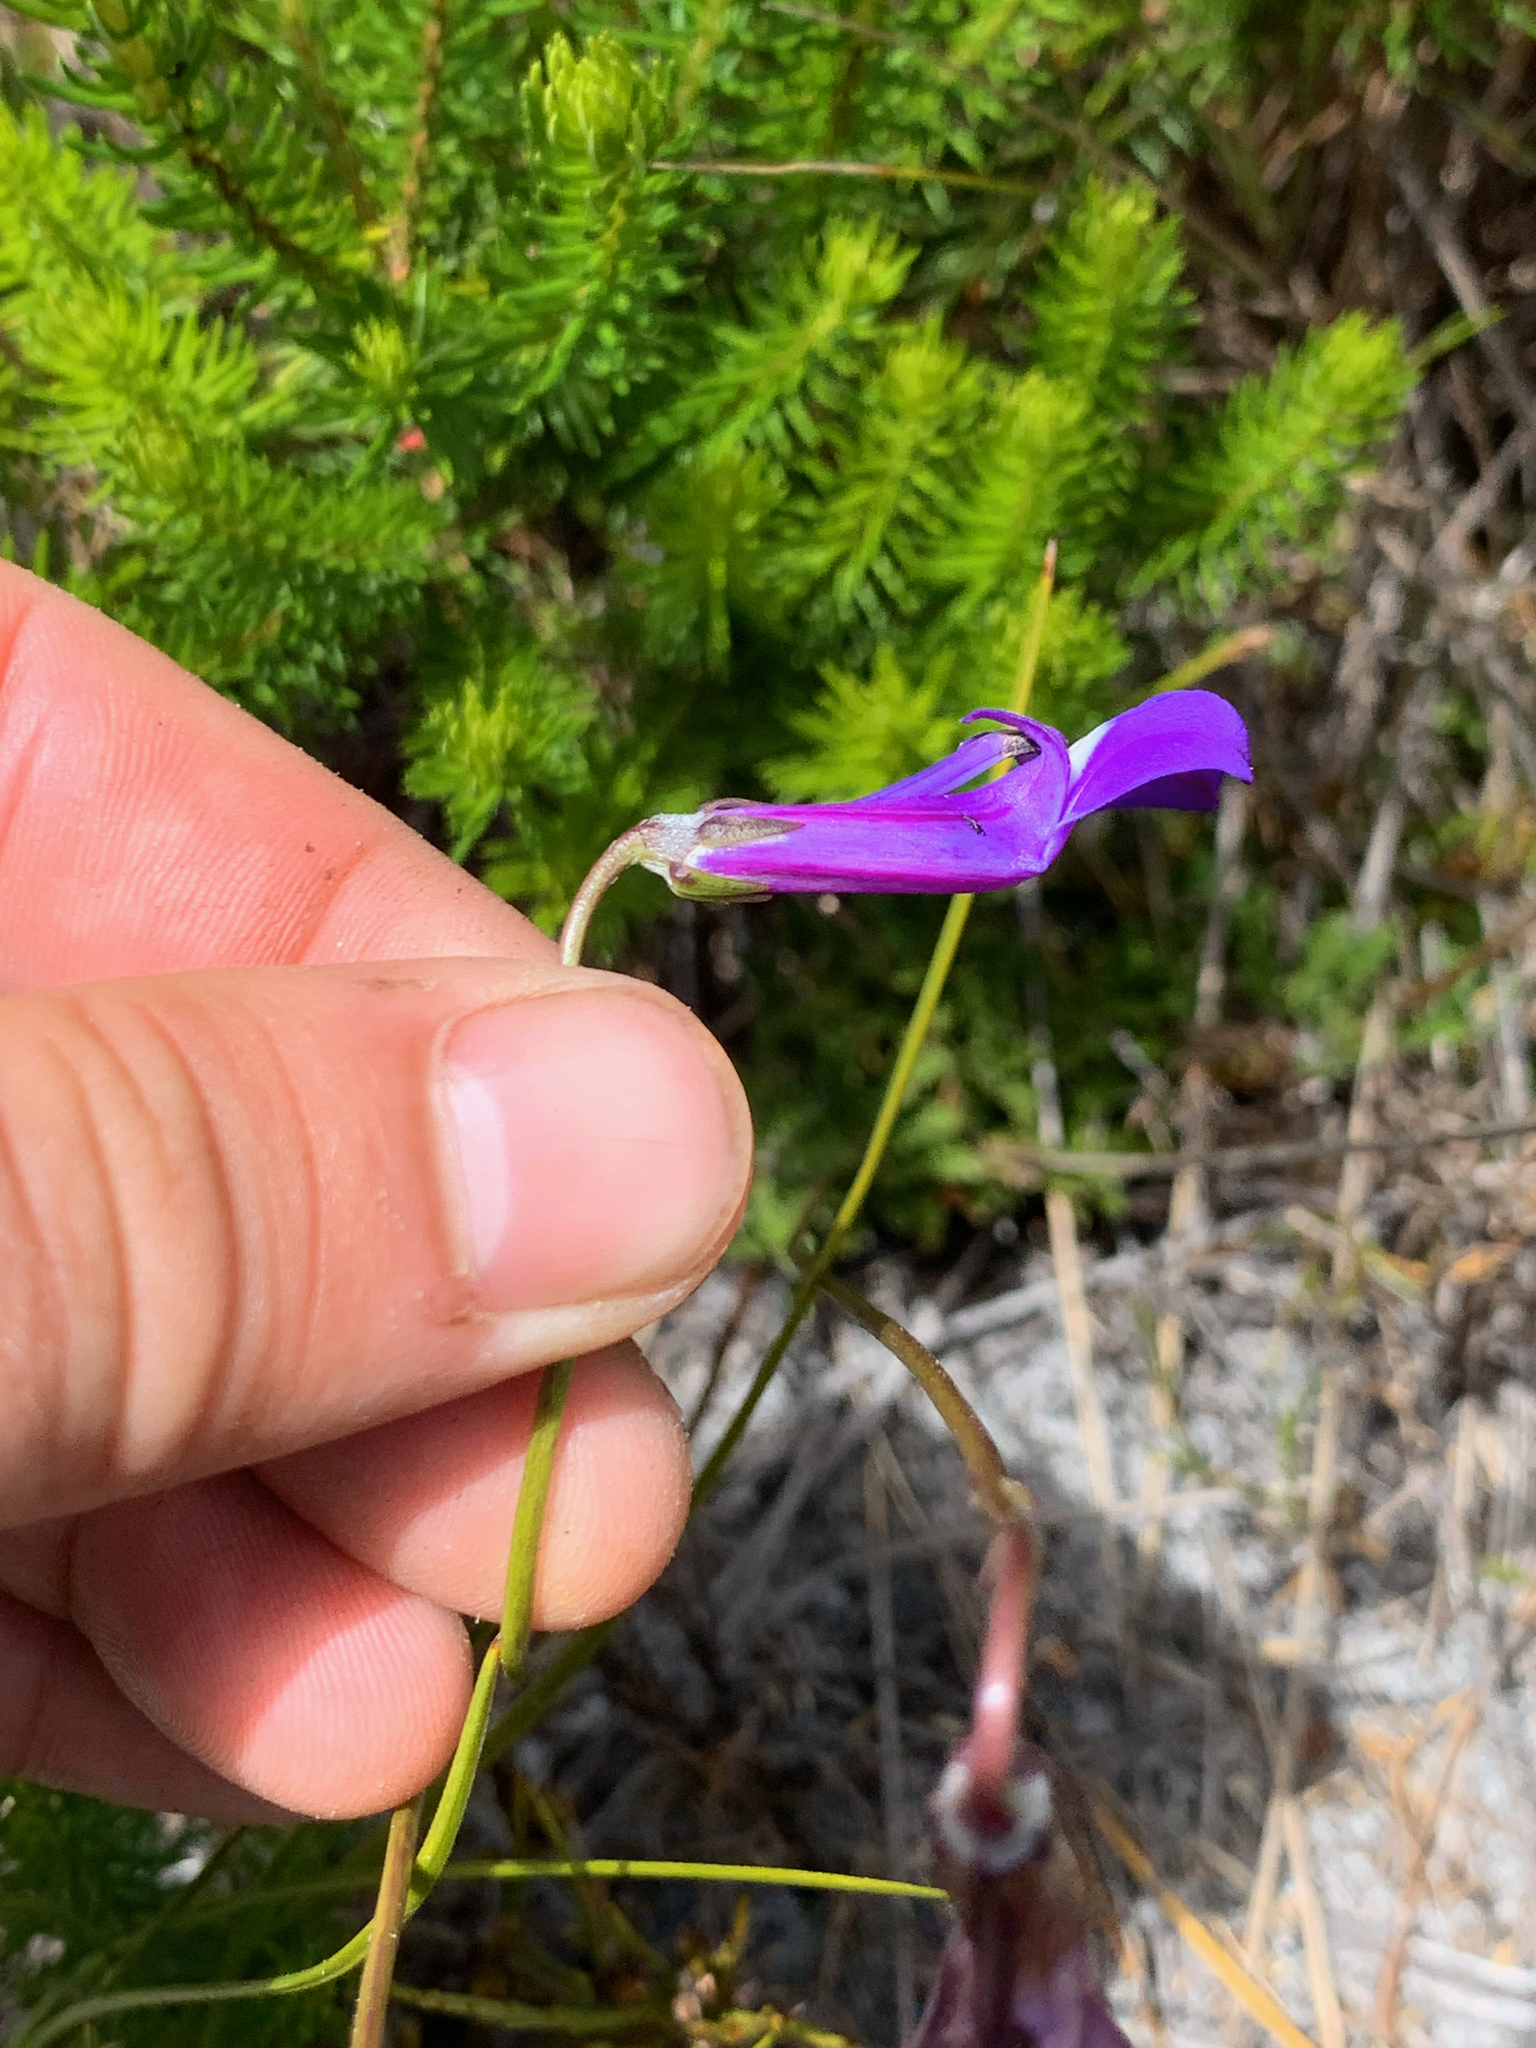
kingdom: Plantae
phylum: Tracheophyta
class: Magnoliopsida
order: Asterales
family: Campanulaceae
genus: Lobelia
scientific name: Lobelia coronopifolia
